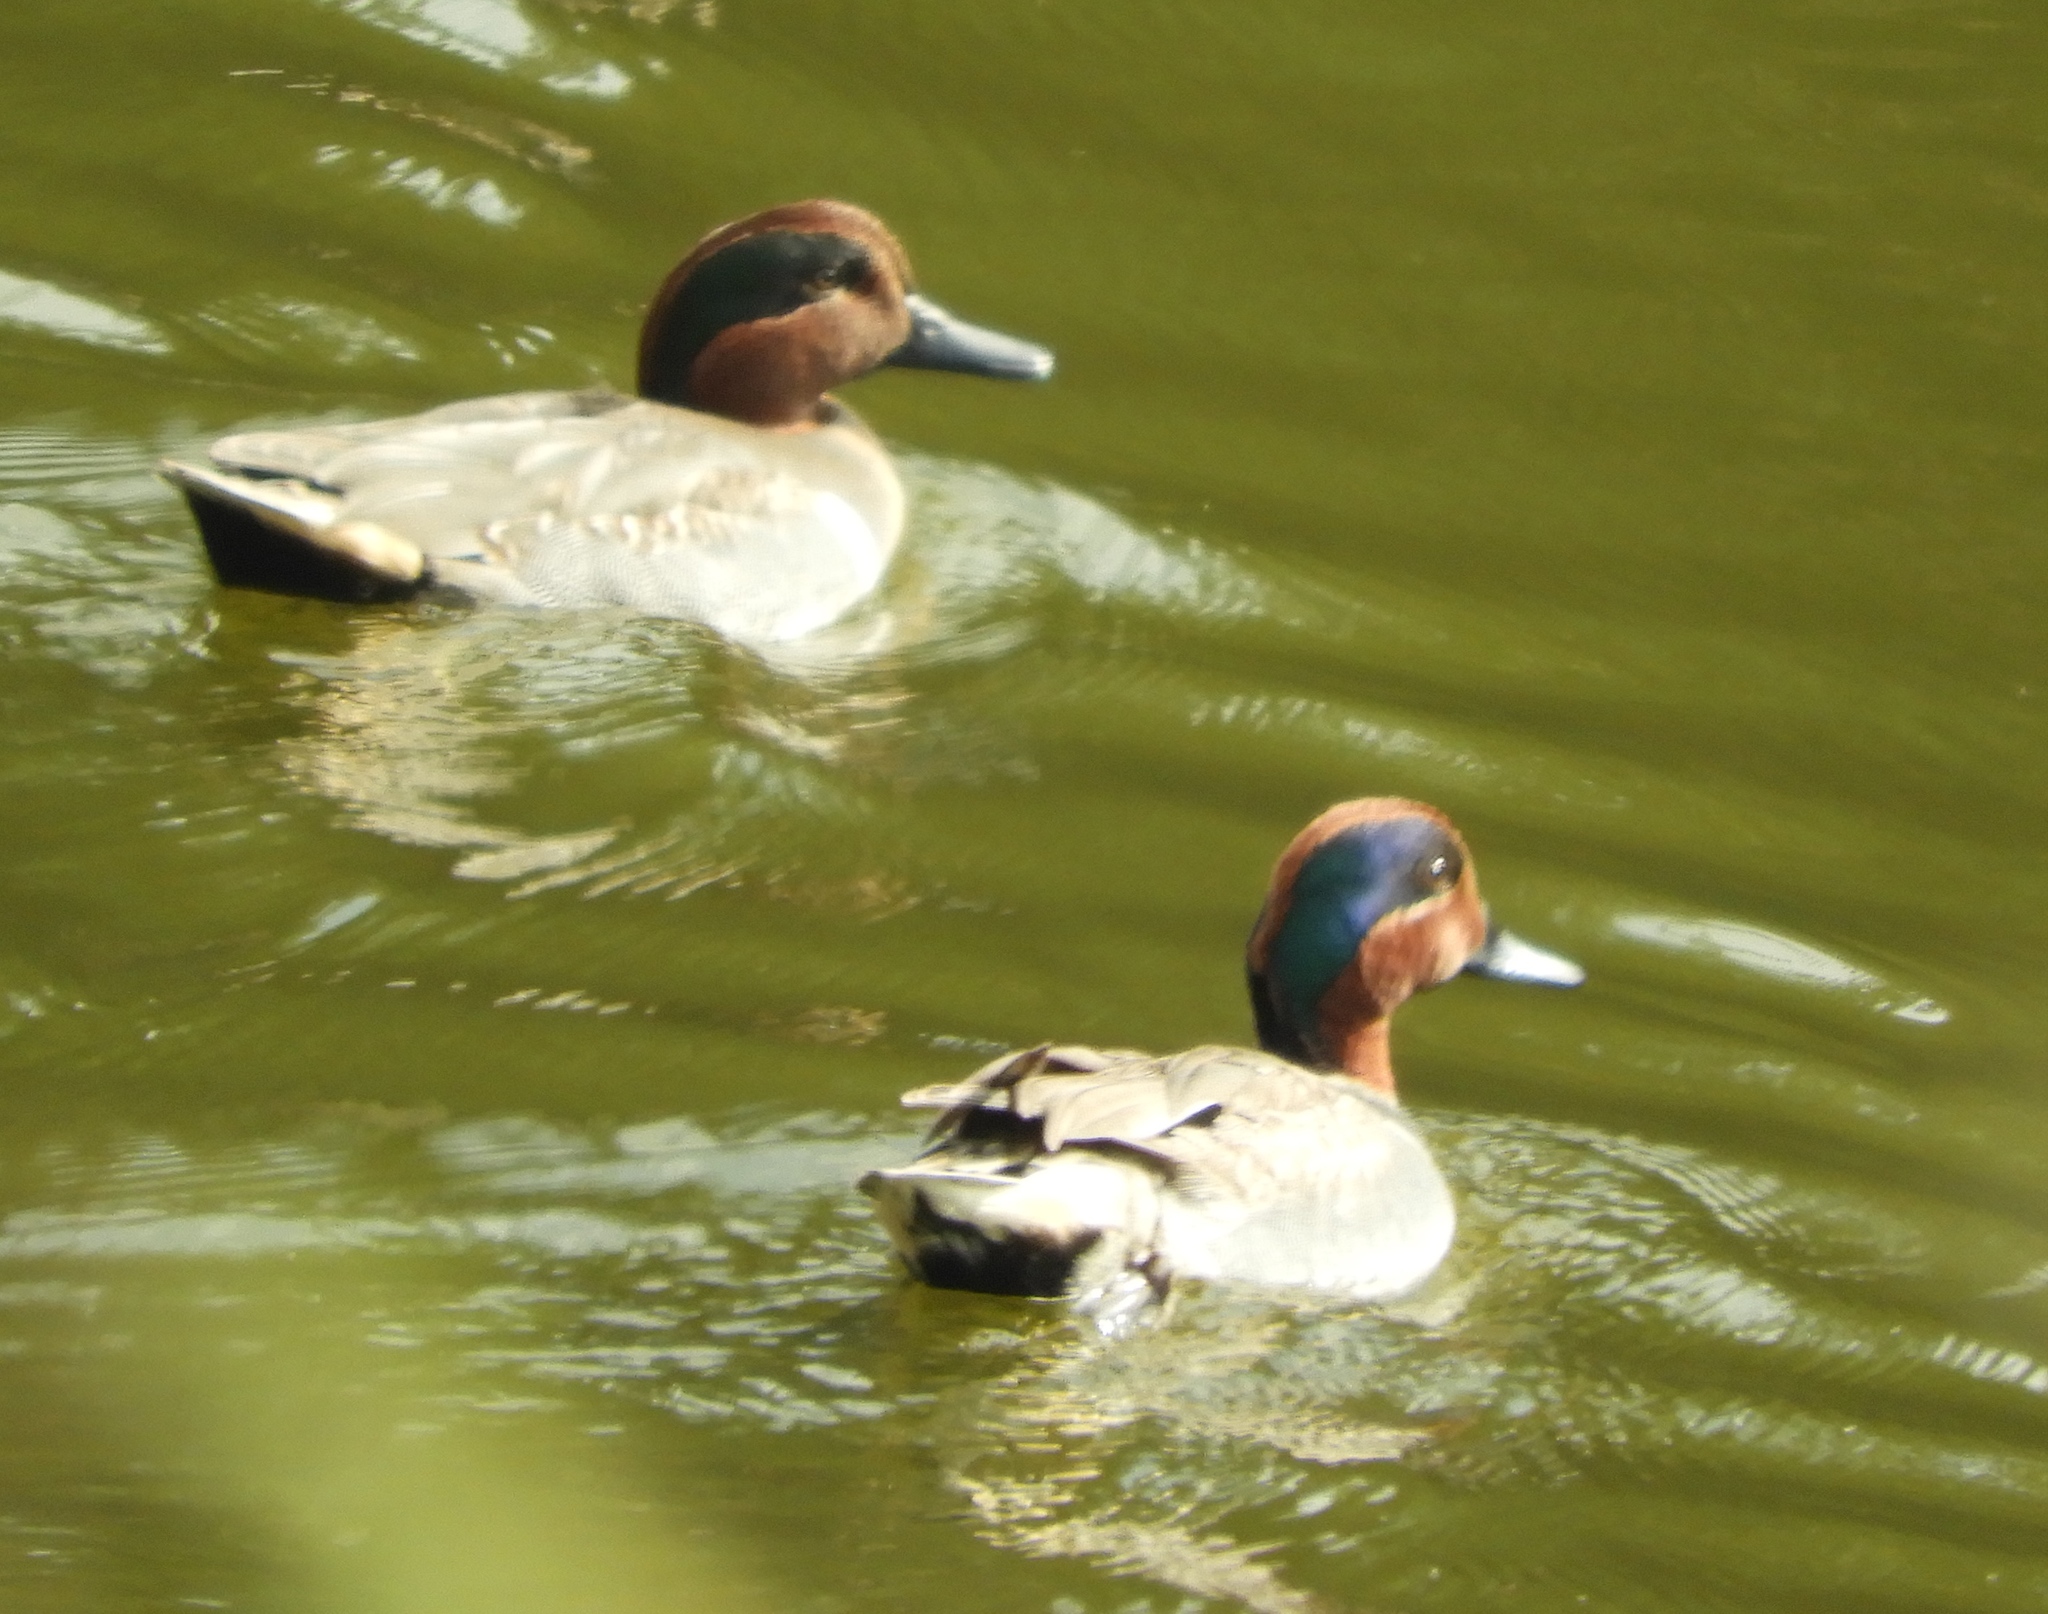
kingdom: Animalia
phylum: Chordata
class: Aves
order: Anseriformes
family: Anatidae
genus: Anas
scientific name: Anas crecca
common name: Eurasian teal
